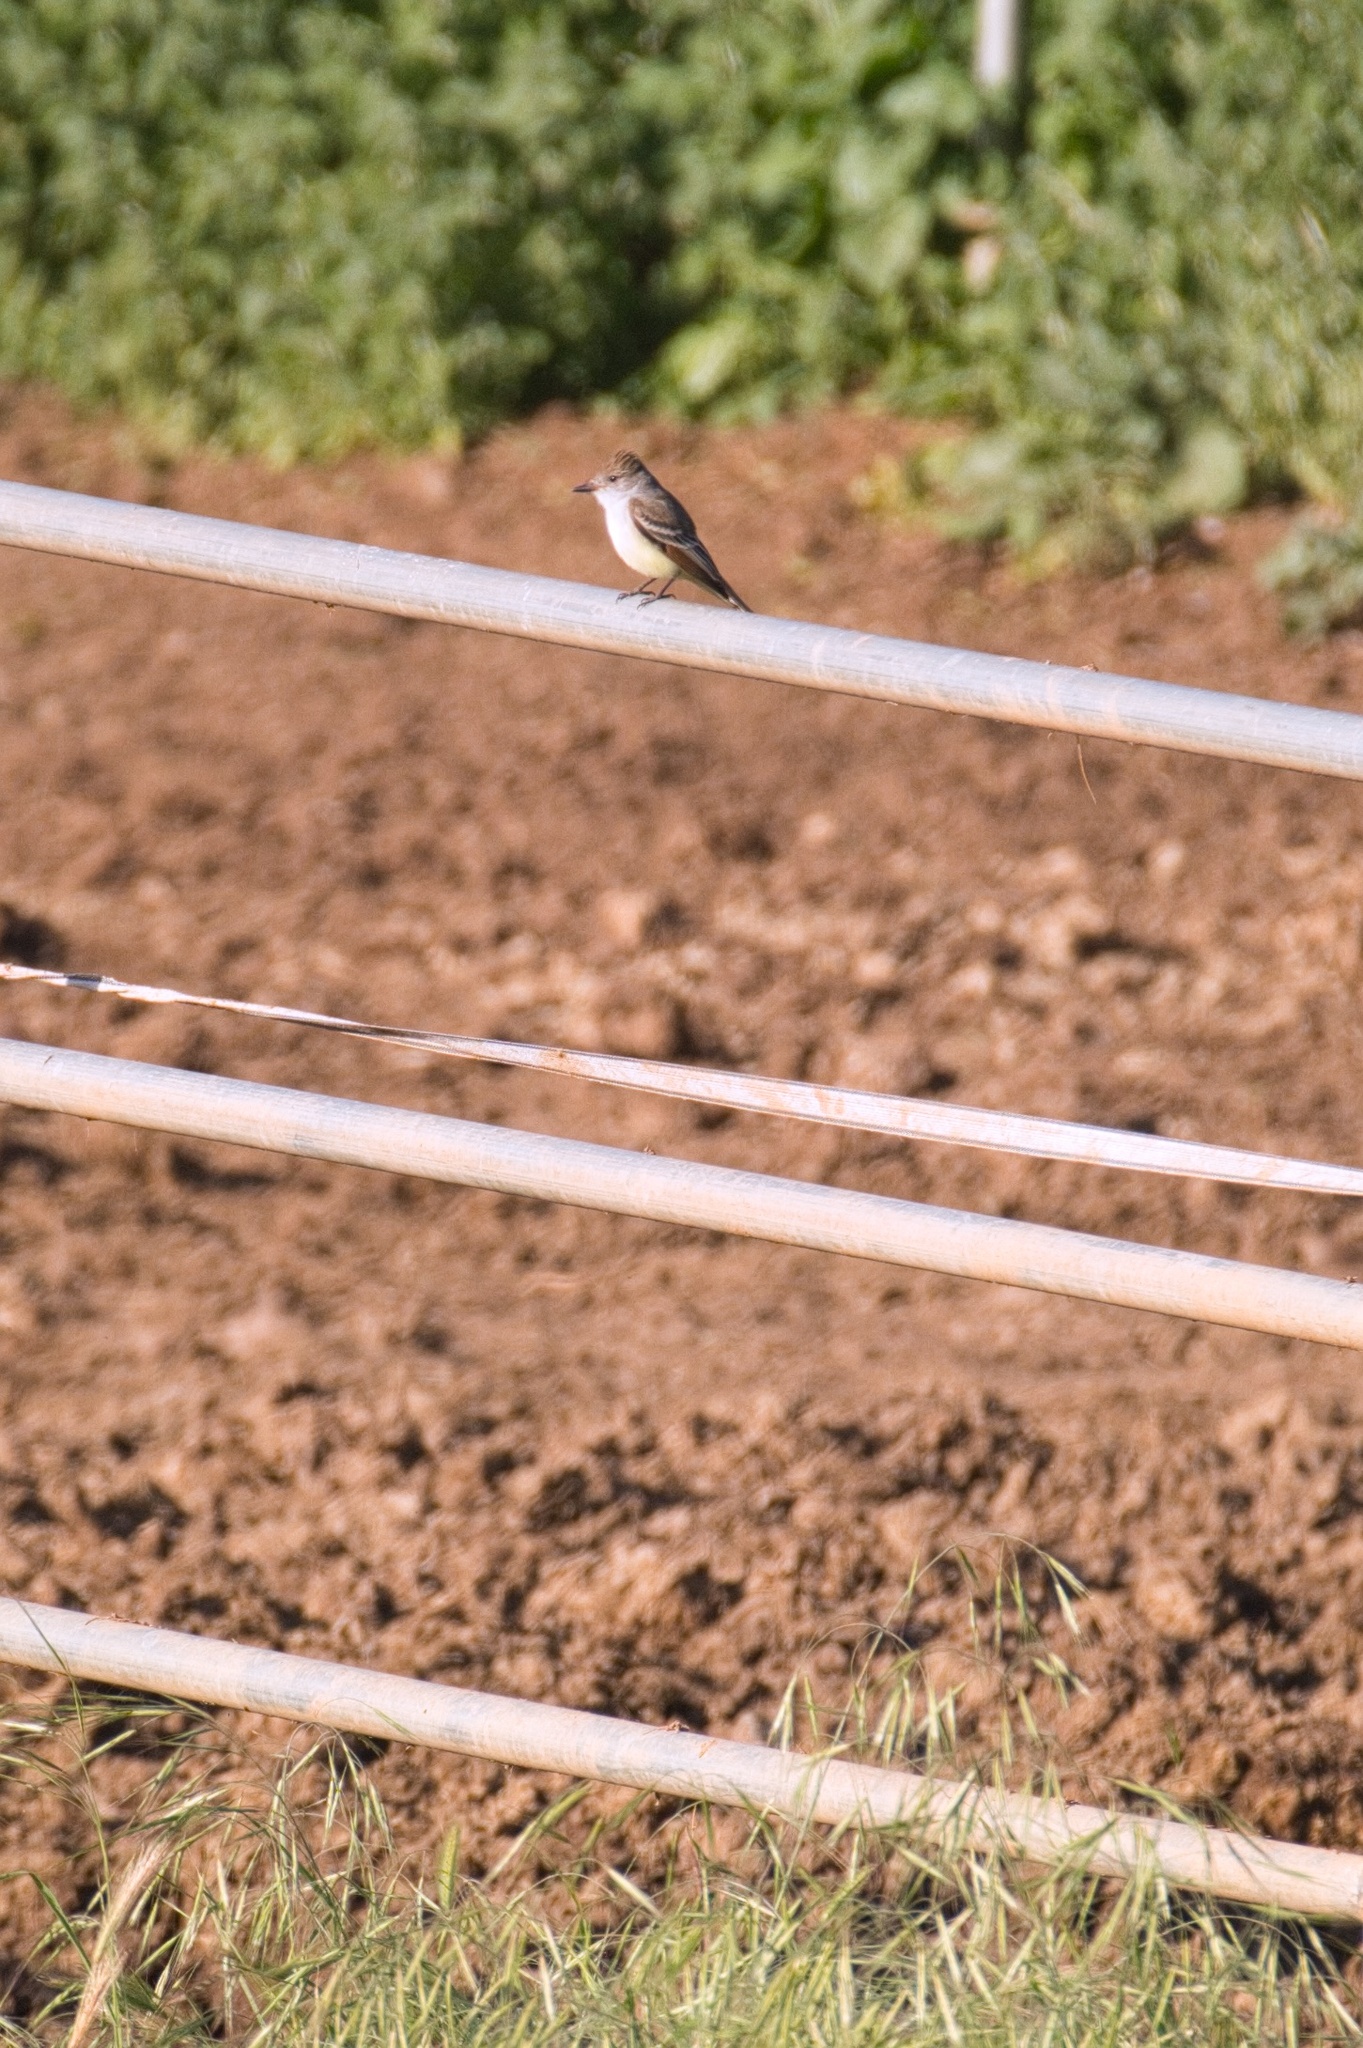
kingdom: Animalia
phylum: Chordata
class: Aves
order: Passeriformes
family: Tyrannidae
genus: Myiarchus
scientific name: Myiarchus cinerascens
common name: Ash-throated flycatcher
